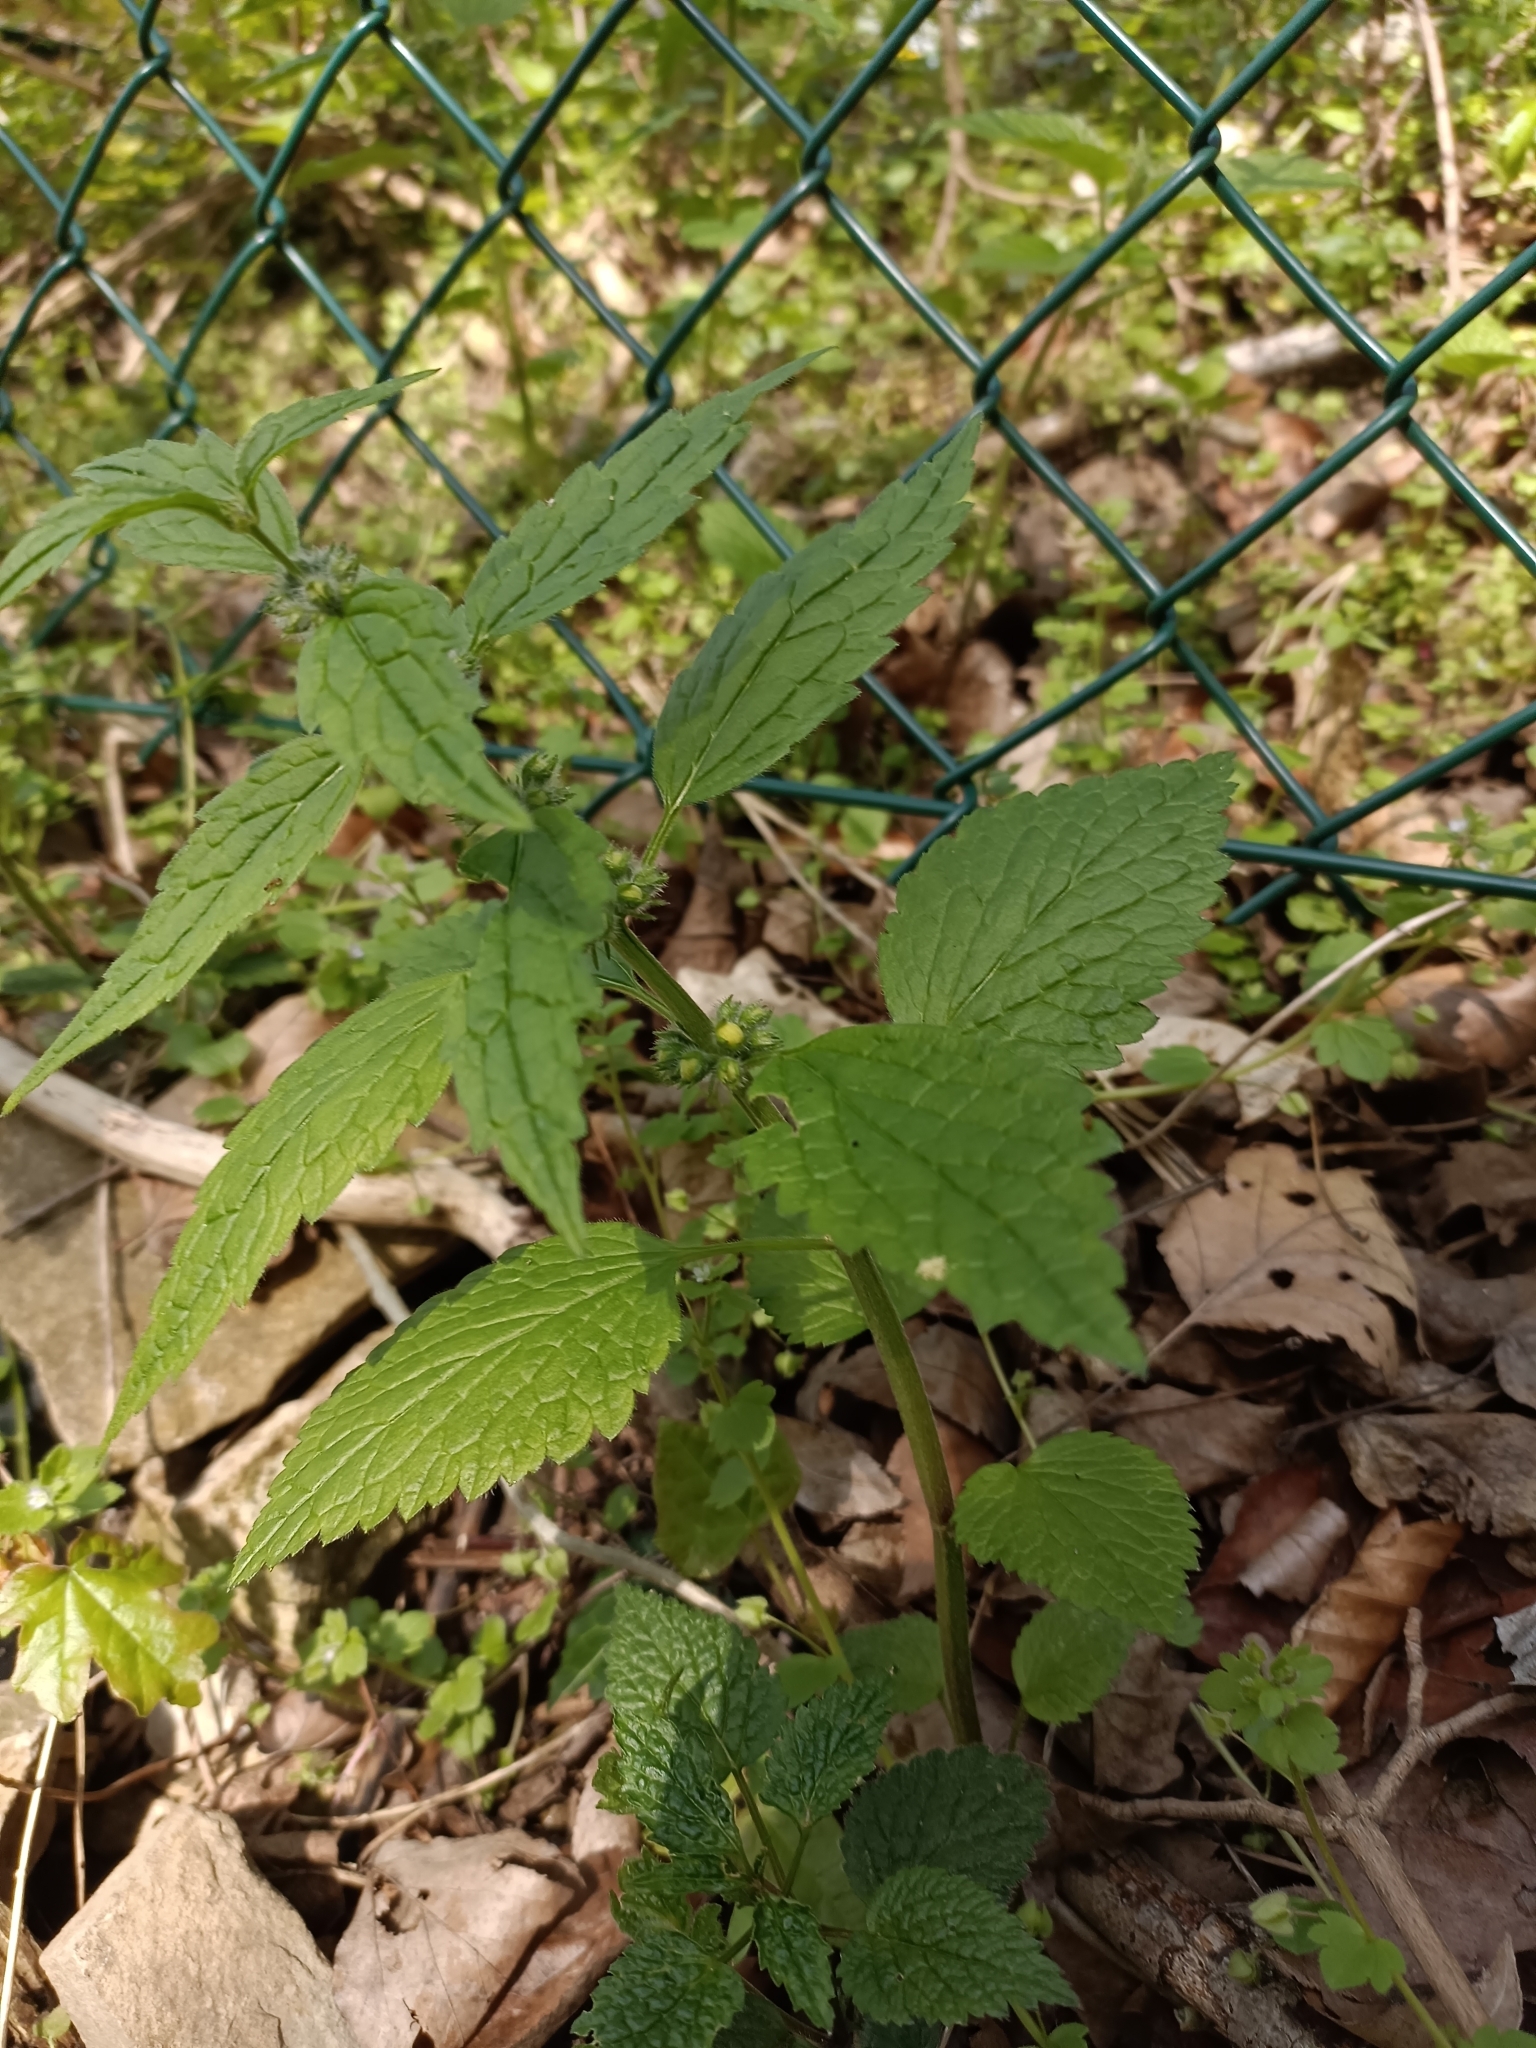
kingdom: Plantae
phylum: Tracheophyta
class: Magnoliopsida
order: Lamiales
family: Lamiaceae
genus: Lamium
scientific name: Lamium galeobdolon
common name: Yellow archangel
